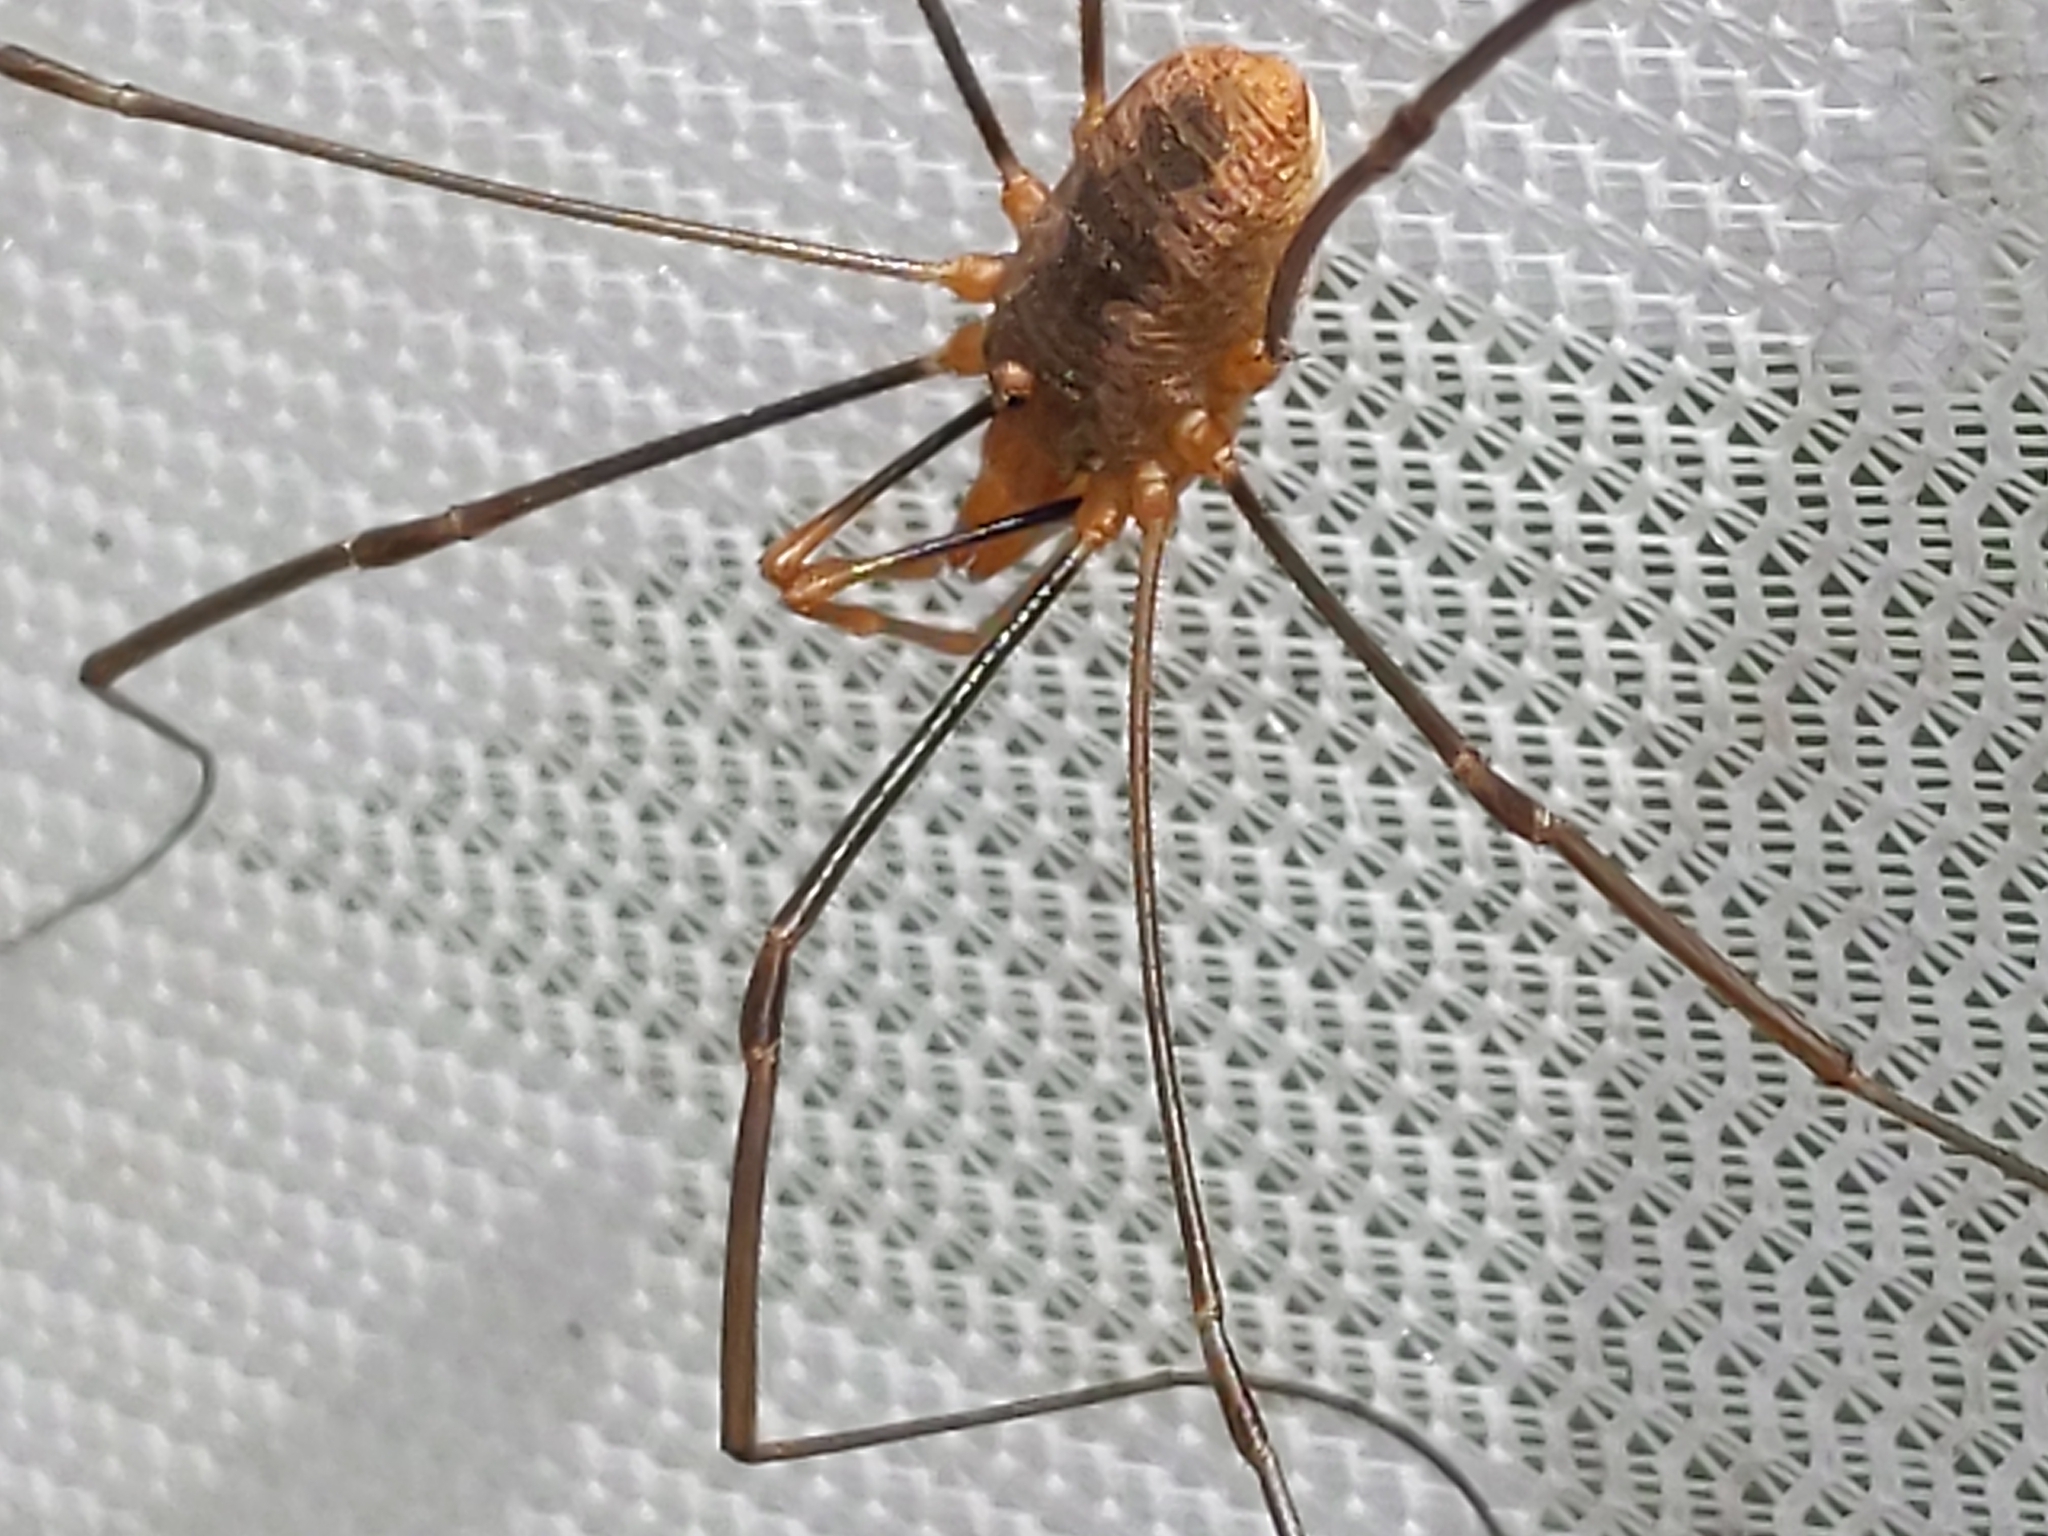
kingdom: Animalia
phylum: Arthropoda
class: Arachnida
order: Opiliones
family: Phalangiidae
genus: Phalangium
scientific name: Phalangium opilio
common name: Daddy longleg
